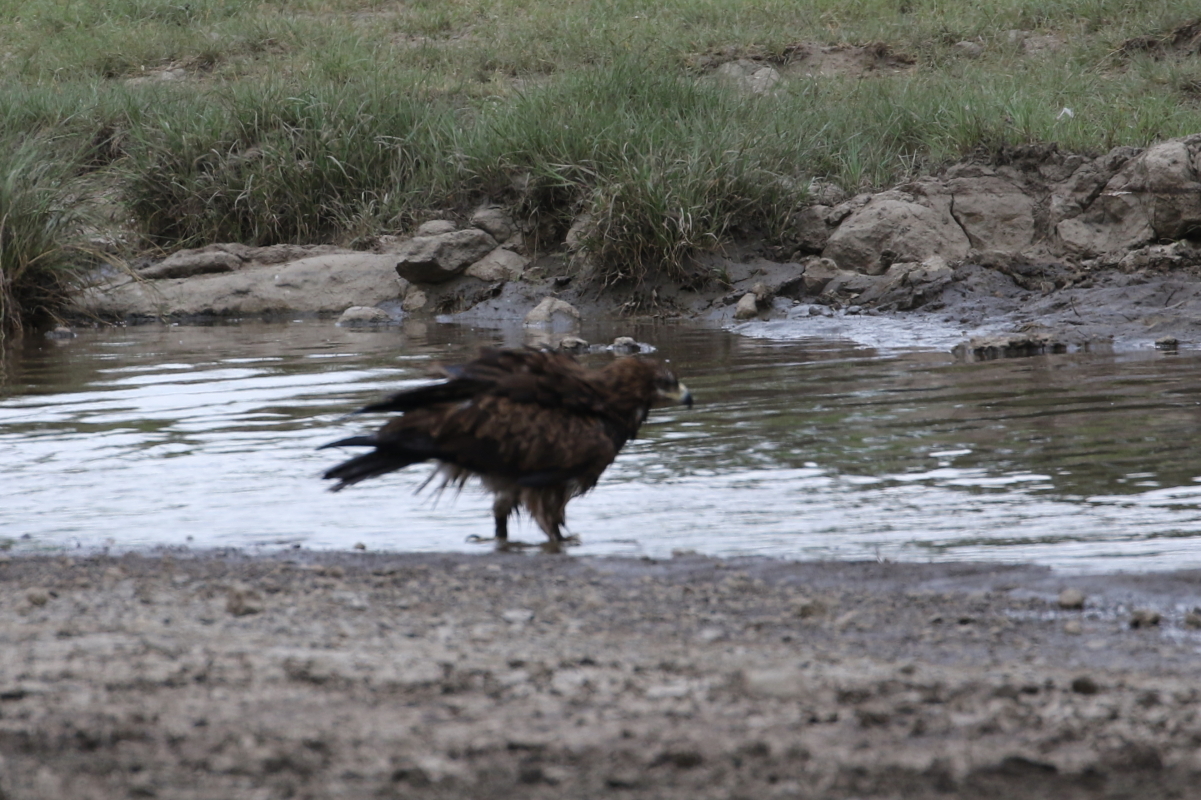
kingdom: Animalia
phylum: Chordata
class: Aves
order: Accipitriformes
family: Accipitridae
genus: Aquila
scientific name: Aquila rapax
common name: Tawny eagle
